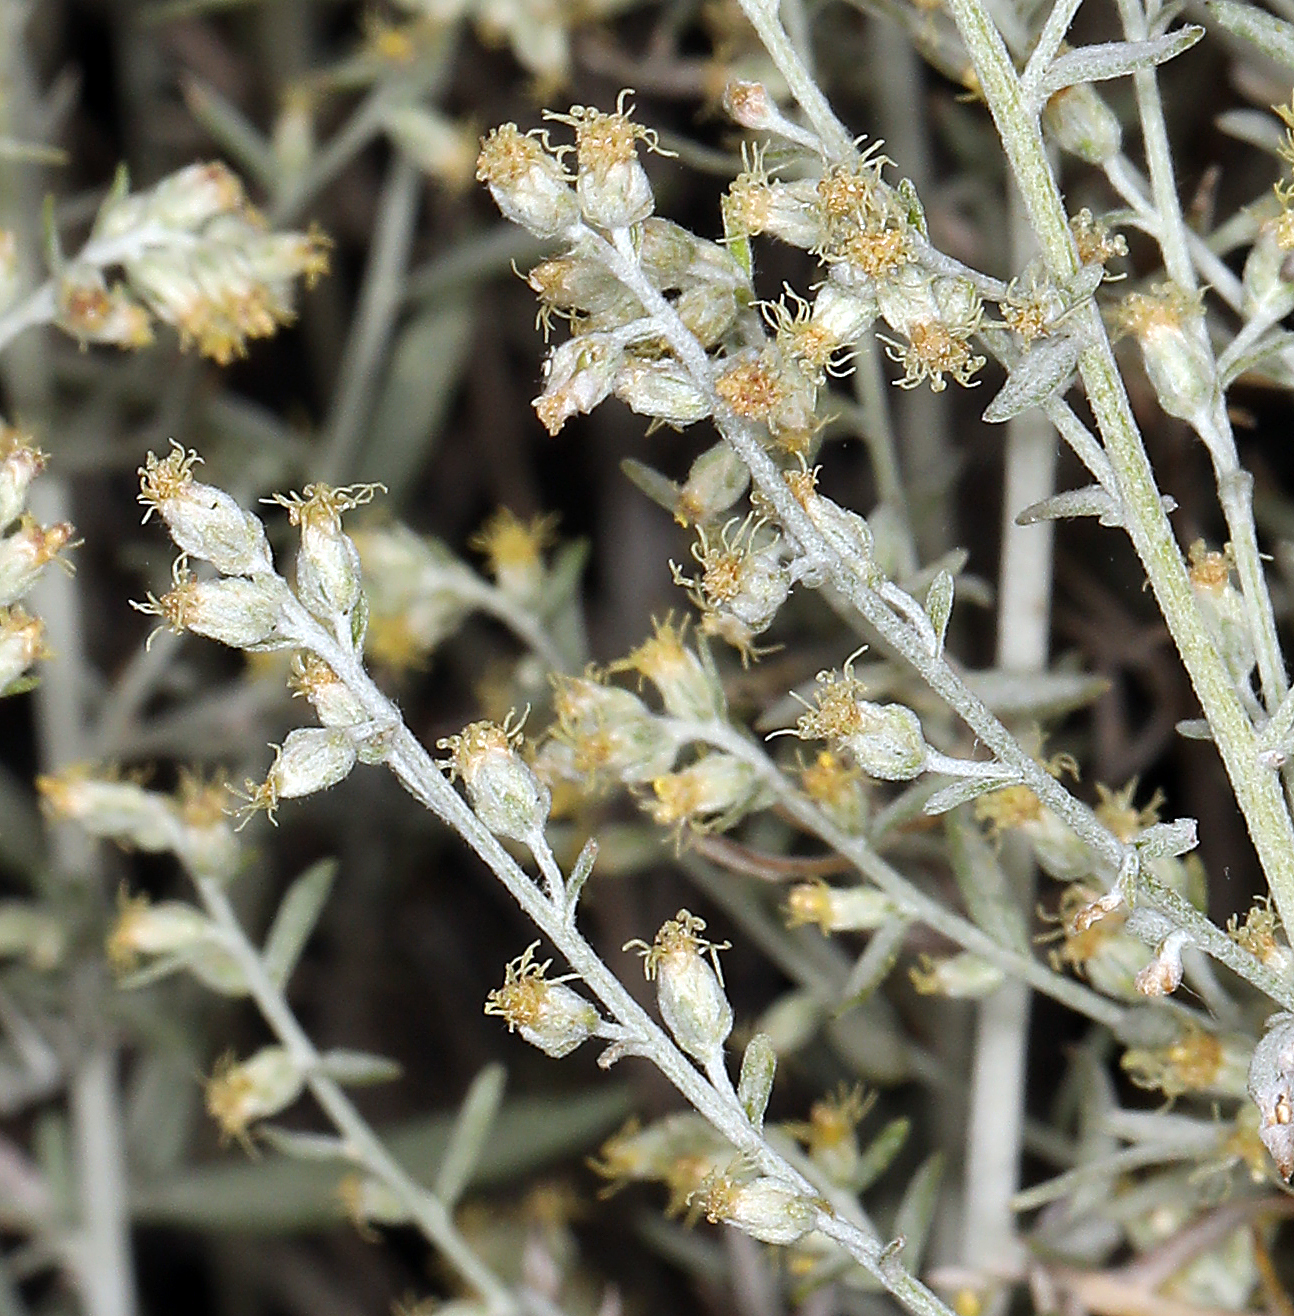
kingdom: Plantae
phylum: Tracheophyta
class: Magnoliopsida
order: Asterales
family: Asteraceae
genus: Artemisia
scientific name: Artemisia ludoviciana
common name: Western mugwort
